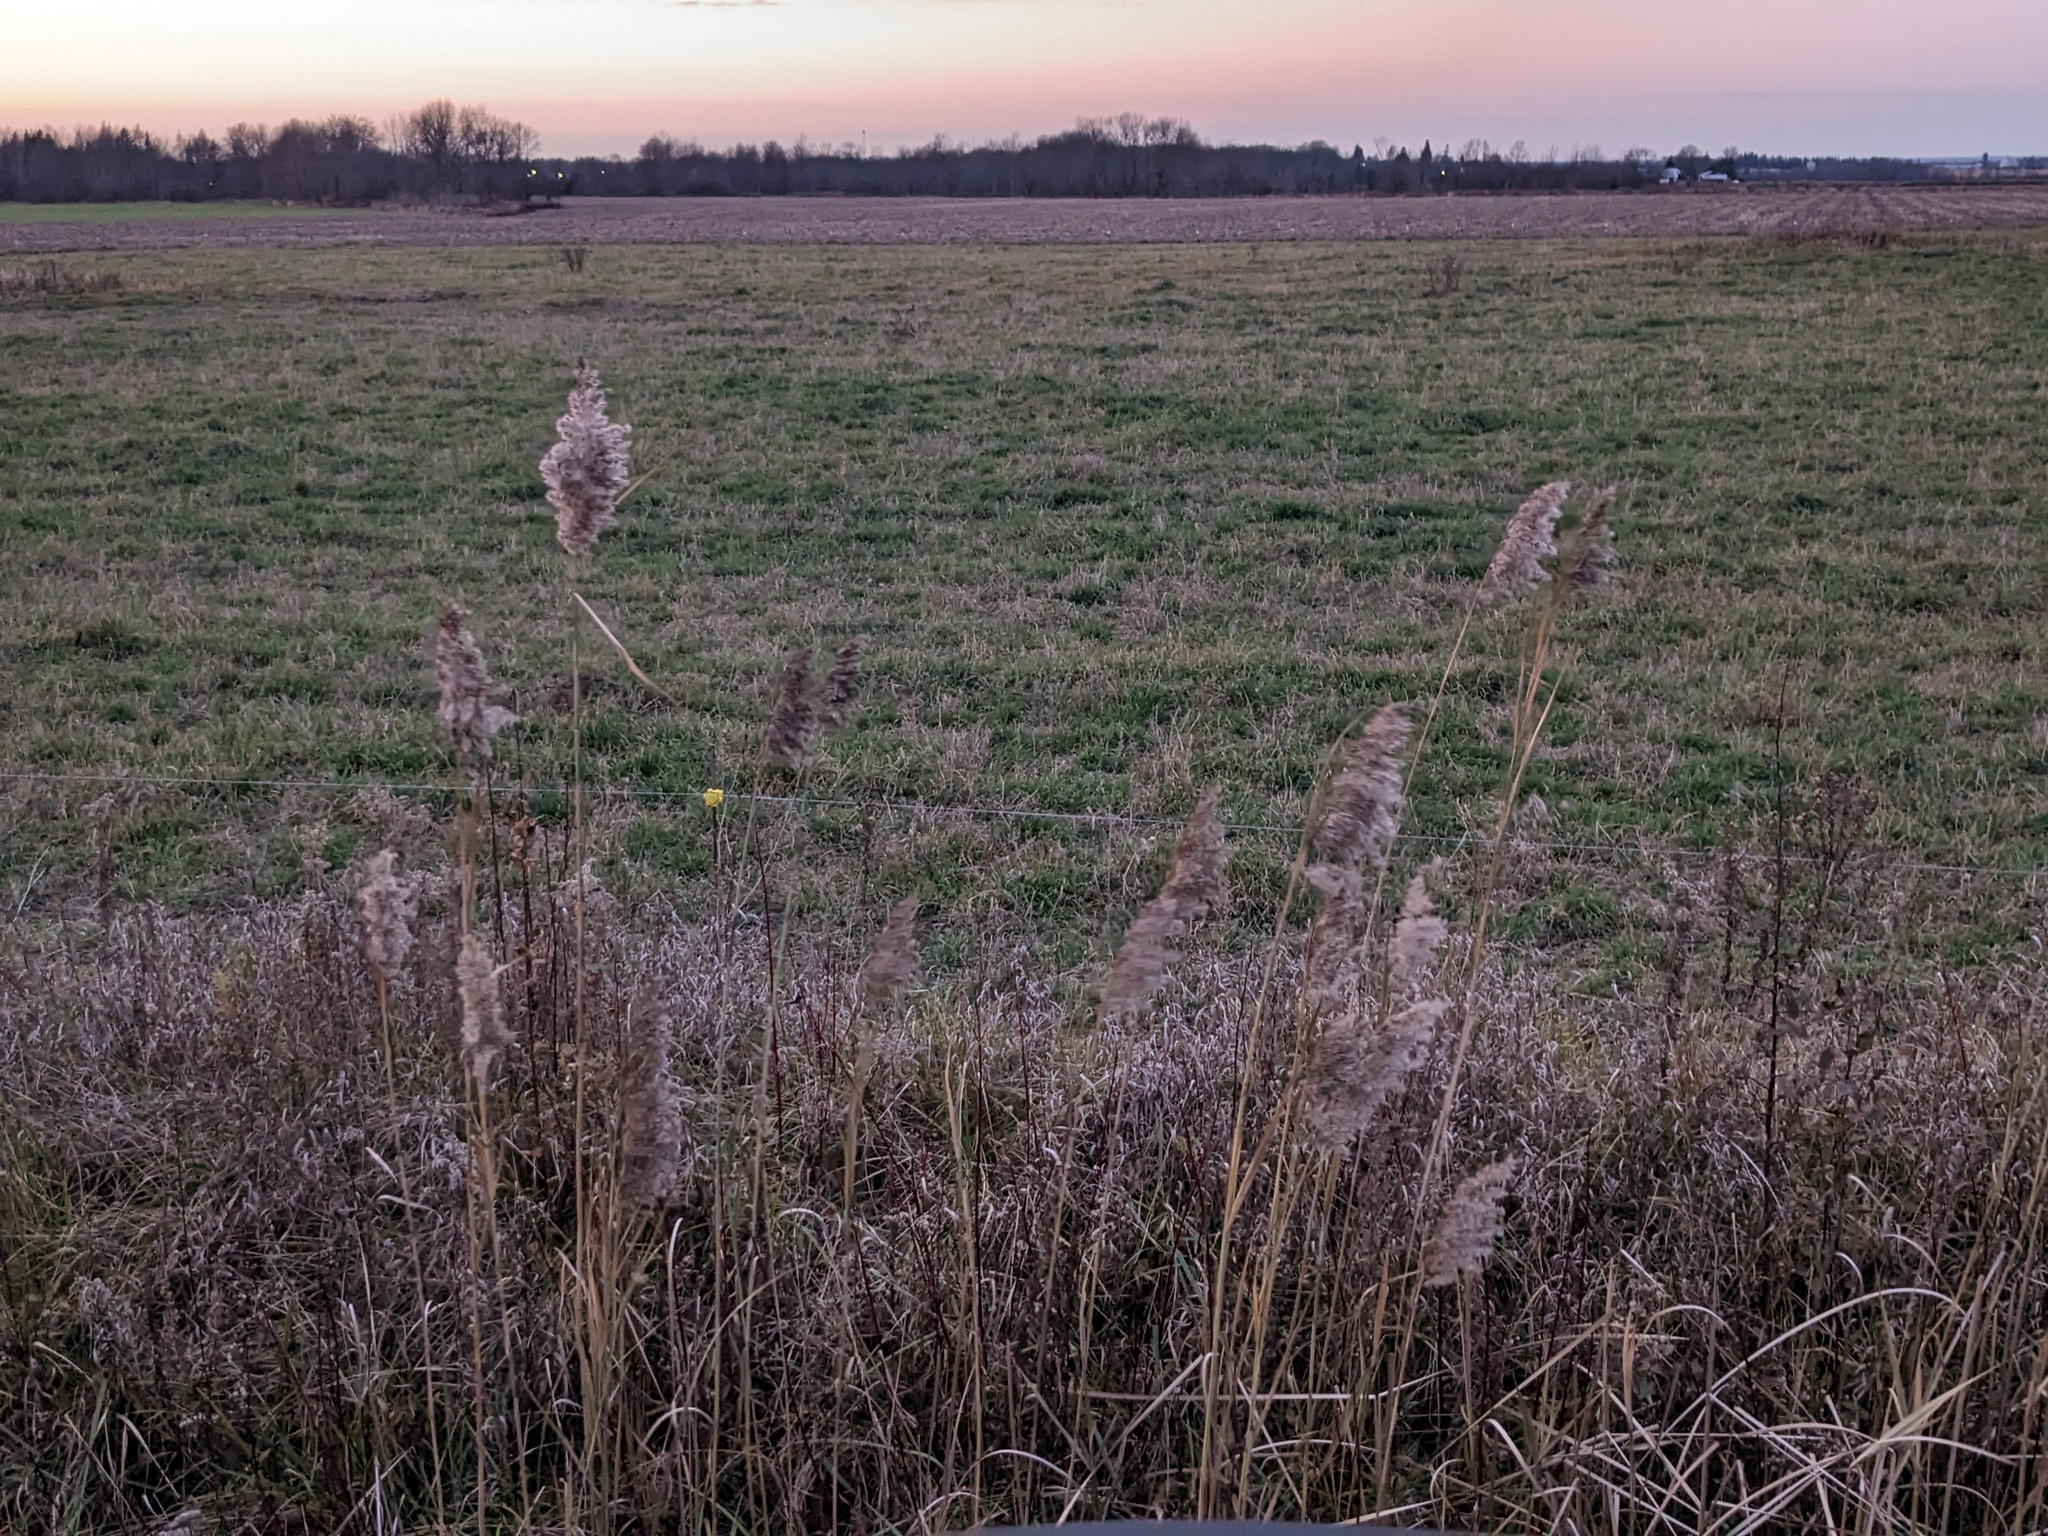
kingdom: Plantae
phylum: Tracheophyta
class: Liliopsida
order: Poales
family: Poaceae
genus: Phragmites
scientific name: Phragmites australis
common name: Common reed
